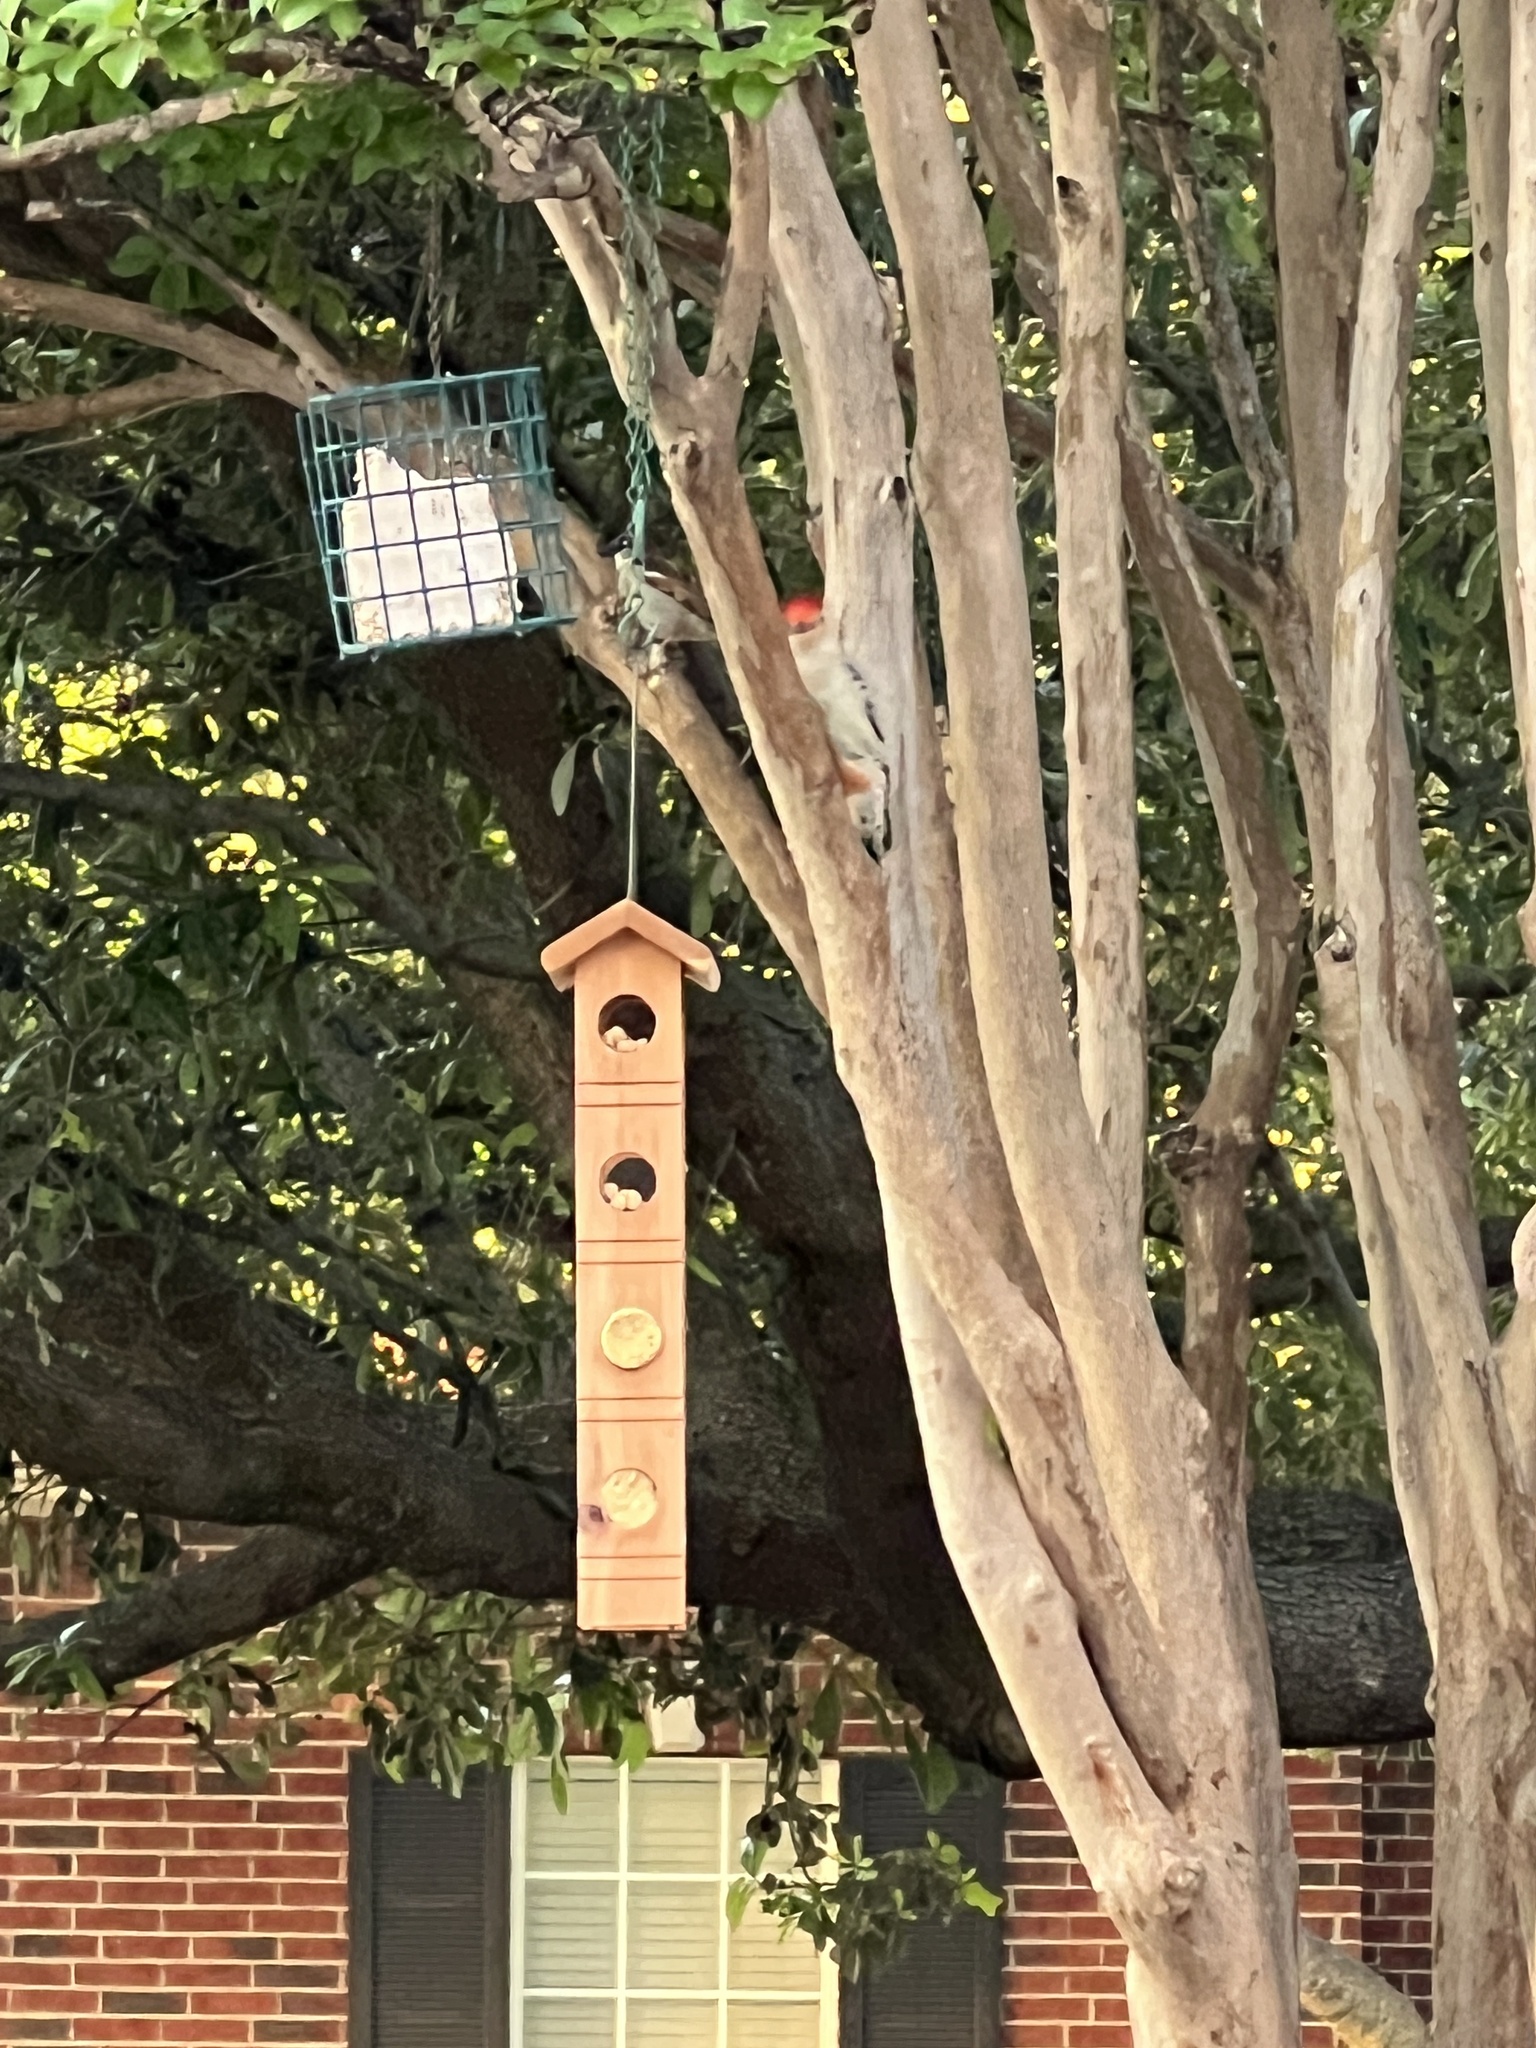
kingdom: Animalia
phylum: Chordata
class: Aves
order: Piciformes
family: Picidae
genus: Melanerpes
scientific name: Melanerpes carolinus
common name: Red-bellied woodpecker
